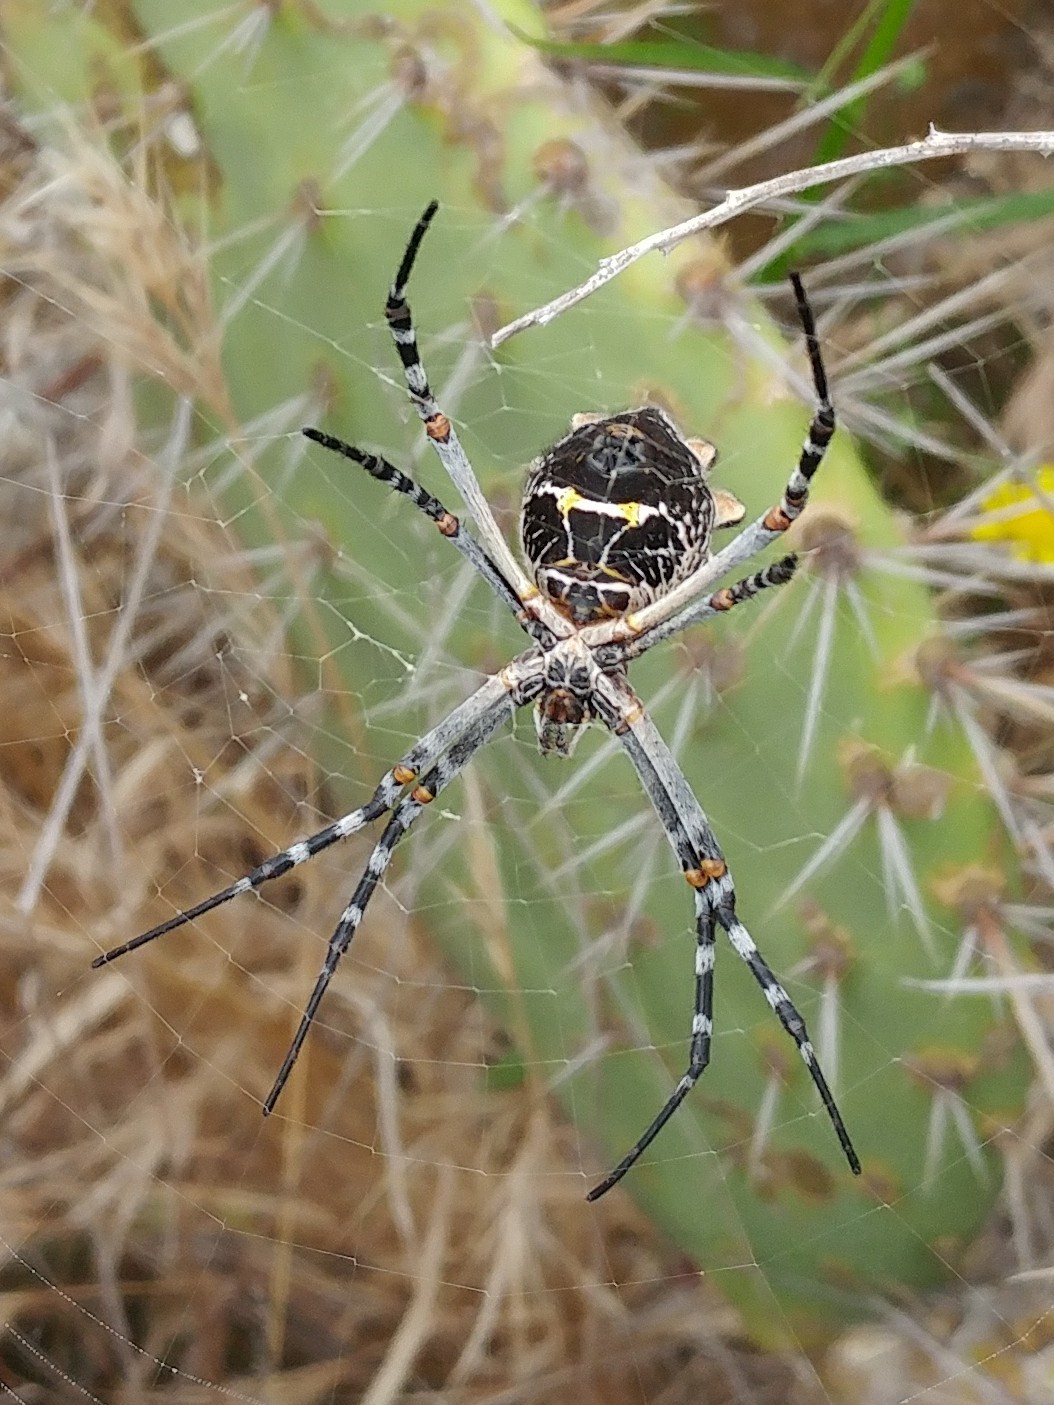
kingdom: Animalia
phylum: Arthropoda
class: Arachnida
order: Araneae
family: Araneidae
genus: Argiope
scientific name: Argiope argentata
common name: Orb weavers
